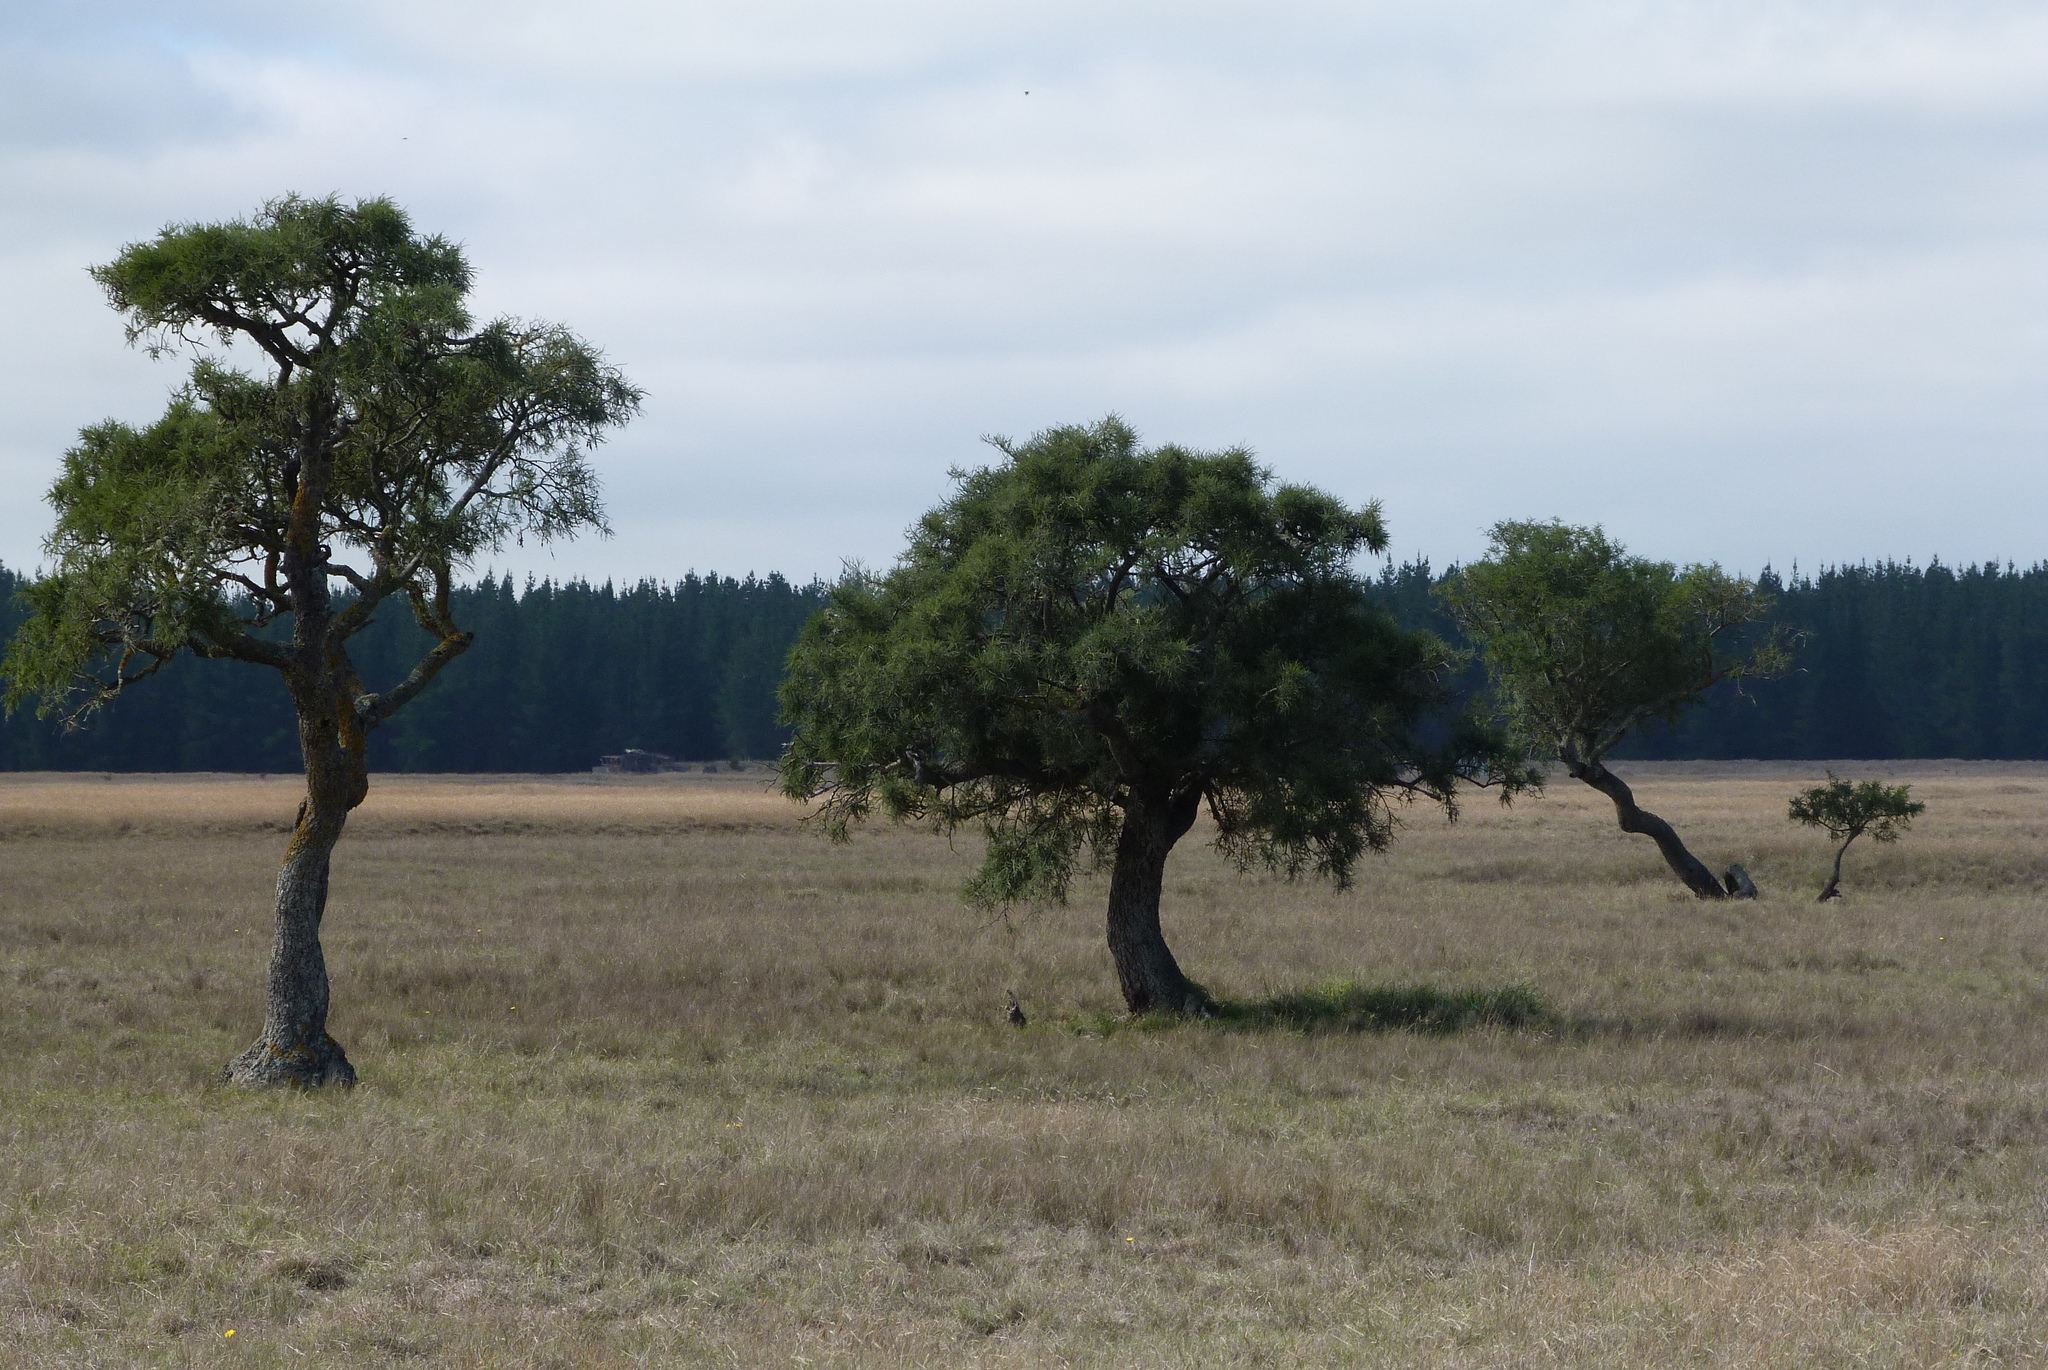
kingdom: Plantae
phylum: Tracheophyta
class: Magnoliopsida
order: Fabales
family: Fabaceae
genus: Sophora
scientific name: Sophora microphylla
